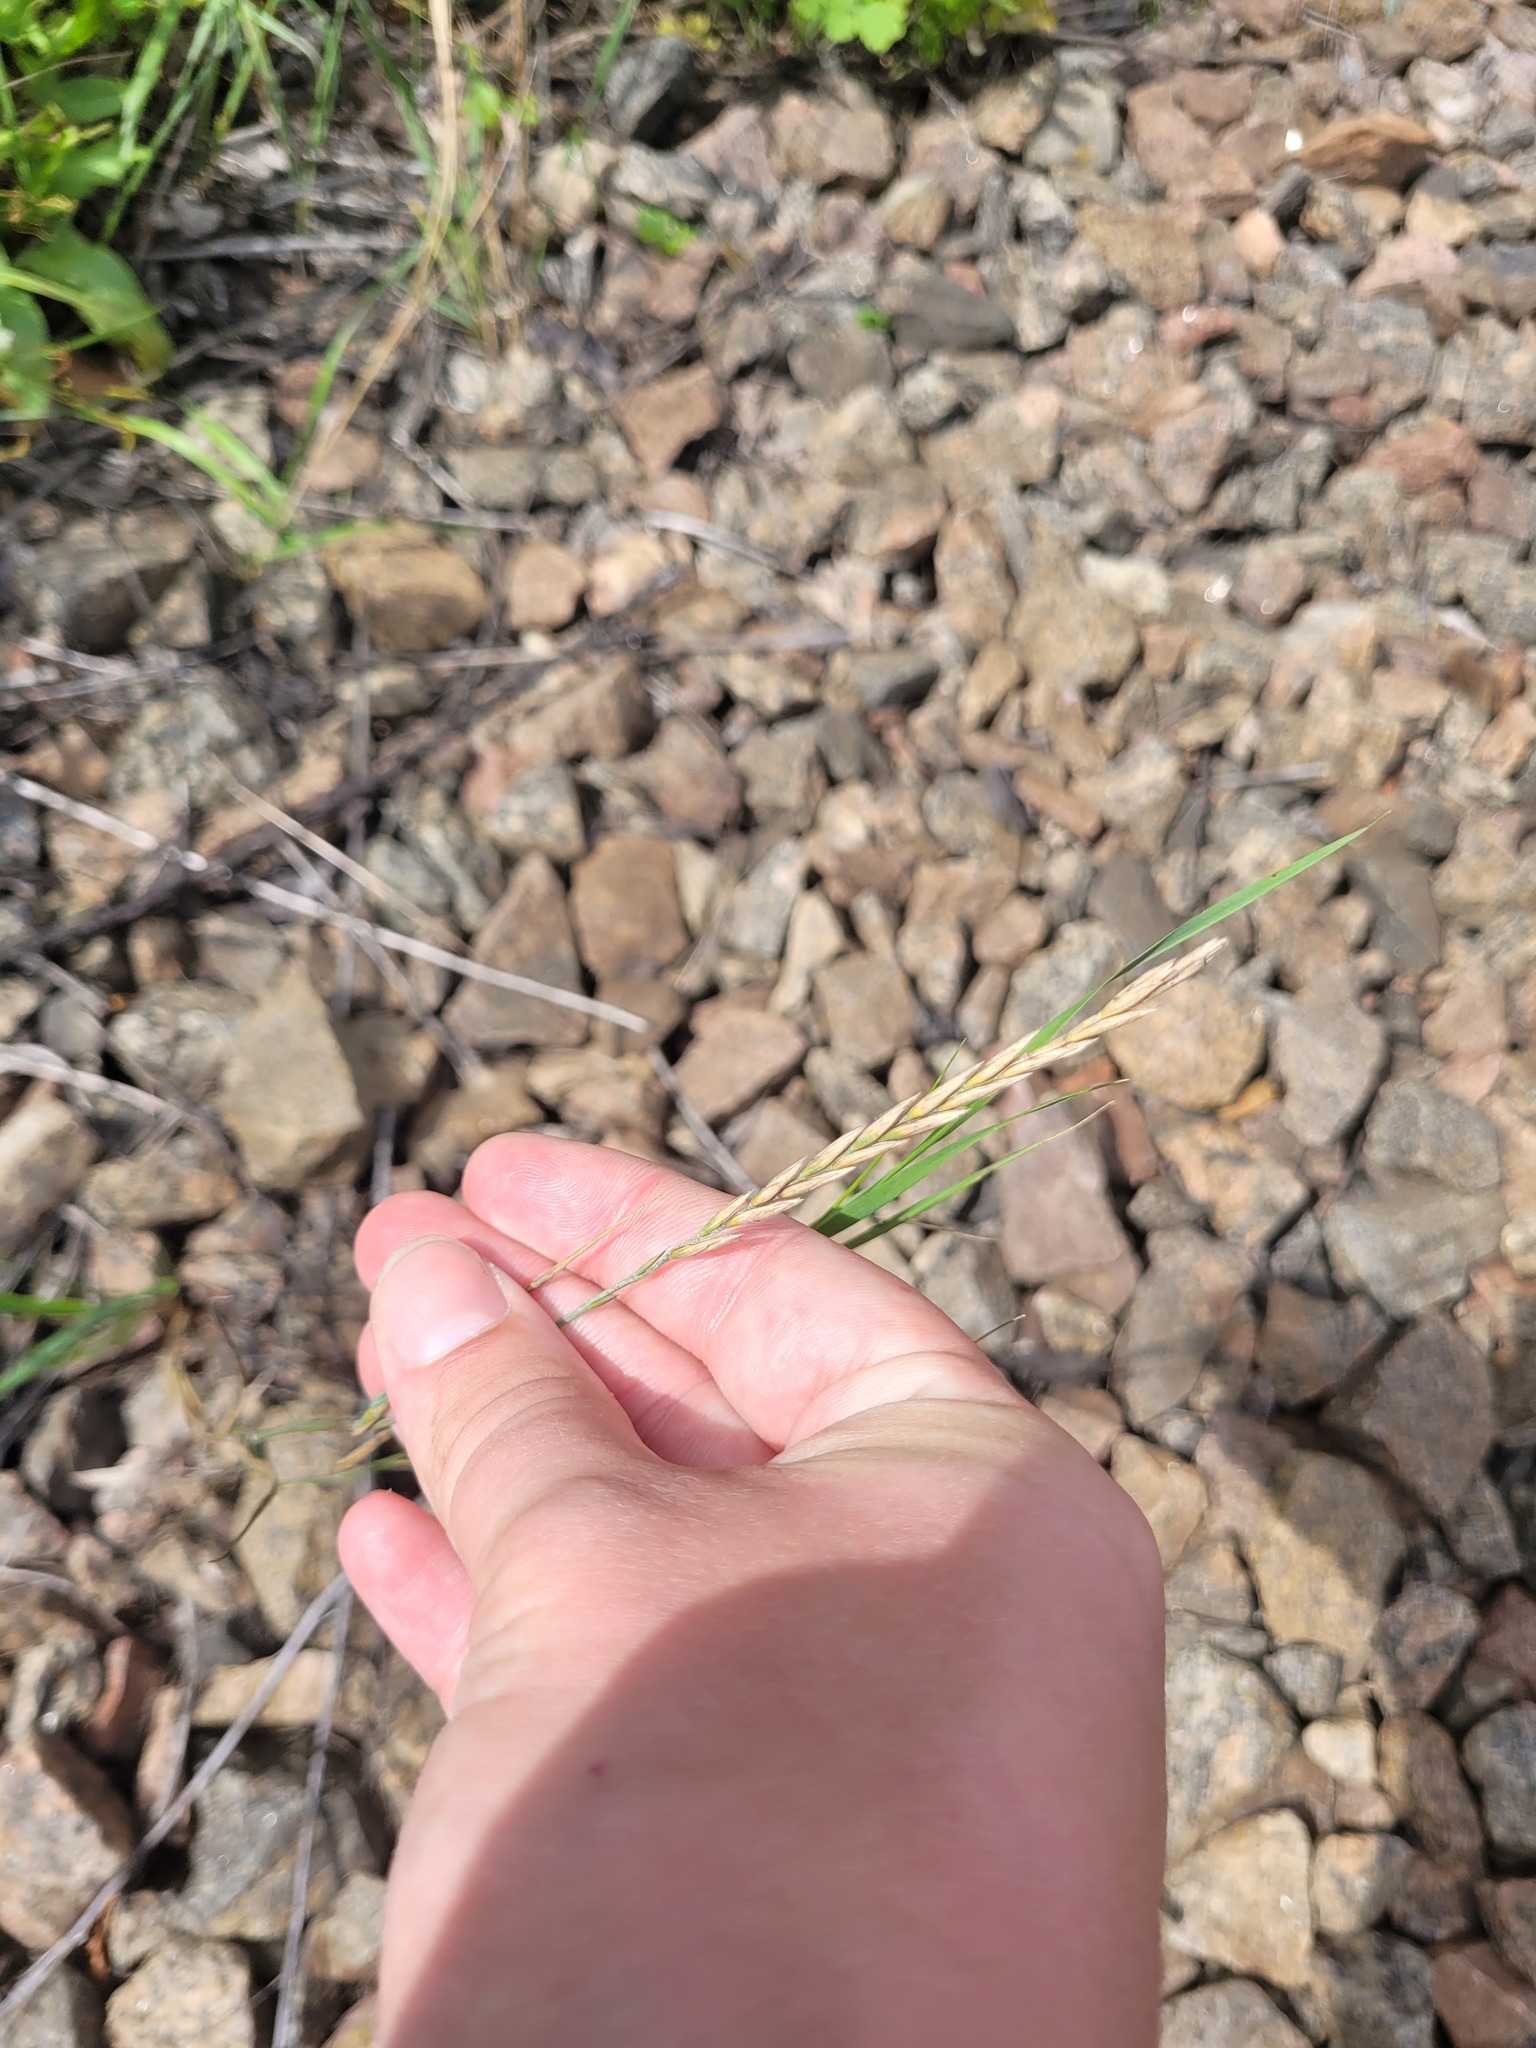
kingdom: Plantae
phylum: Tracheophyta
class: Liliopsida
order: Poales
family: Poaceae
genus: Elymus
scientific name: Elymus repens
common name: Quackgrass
